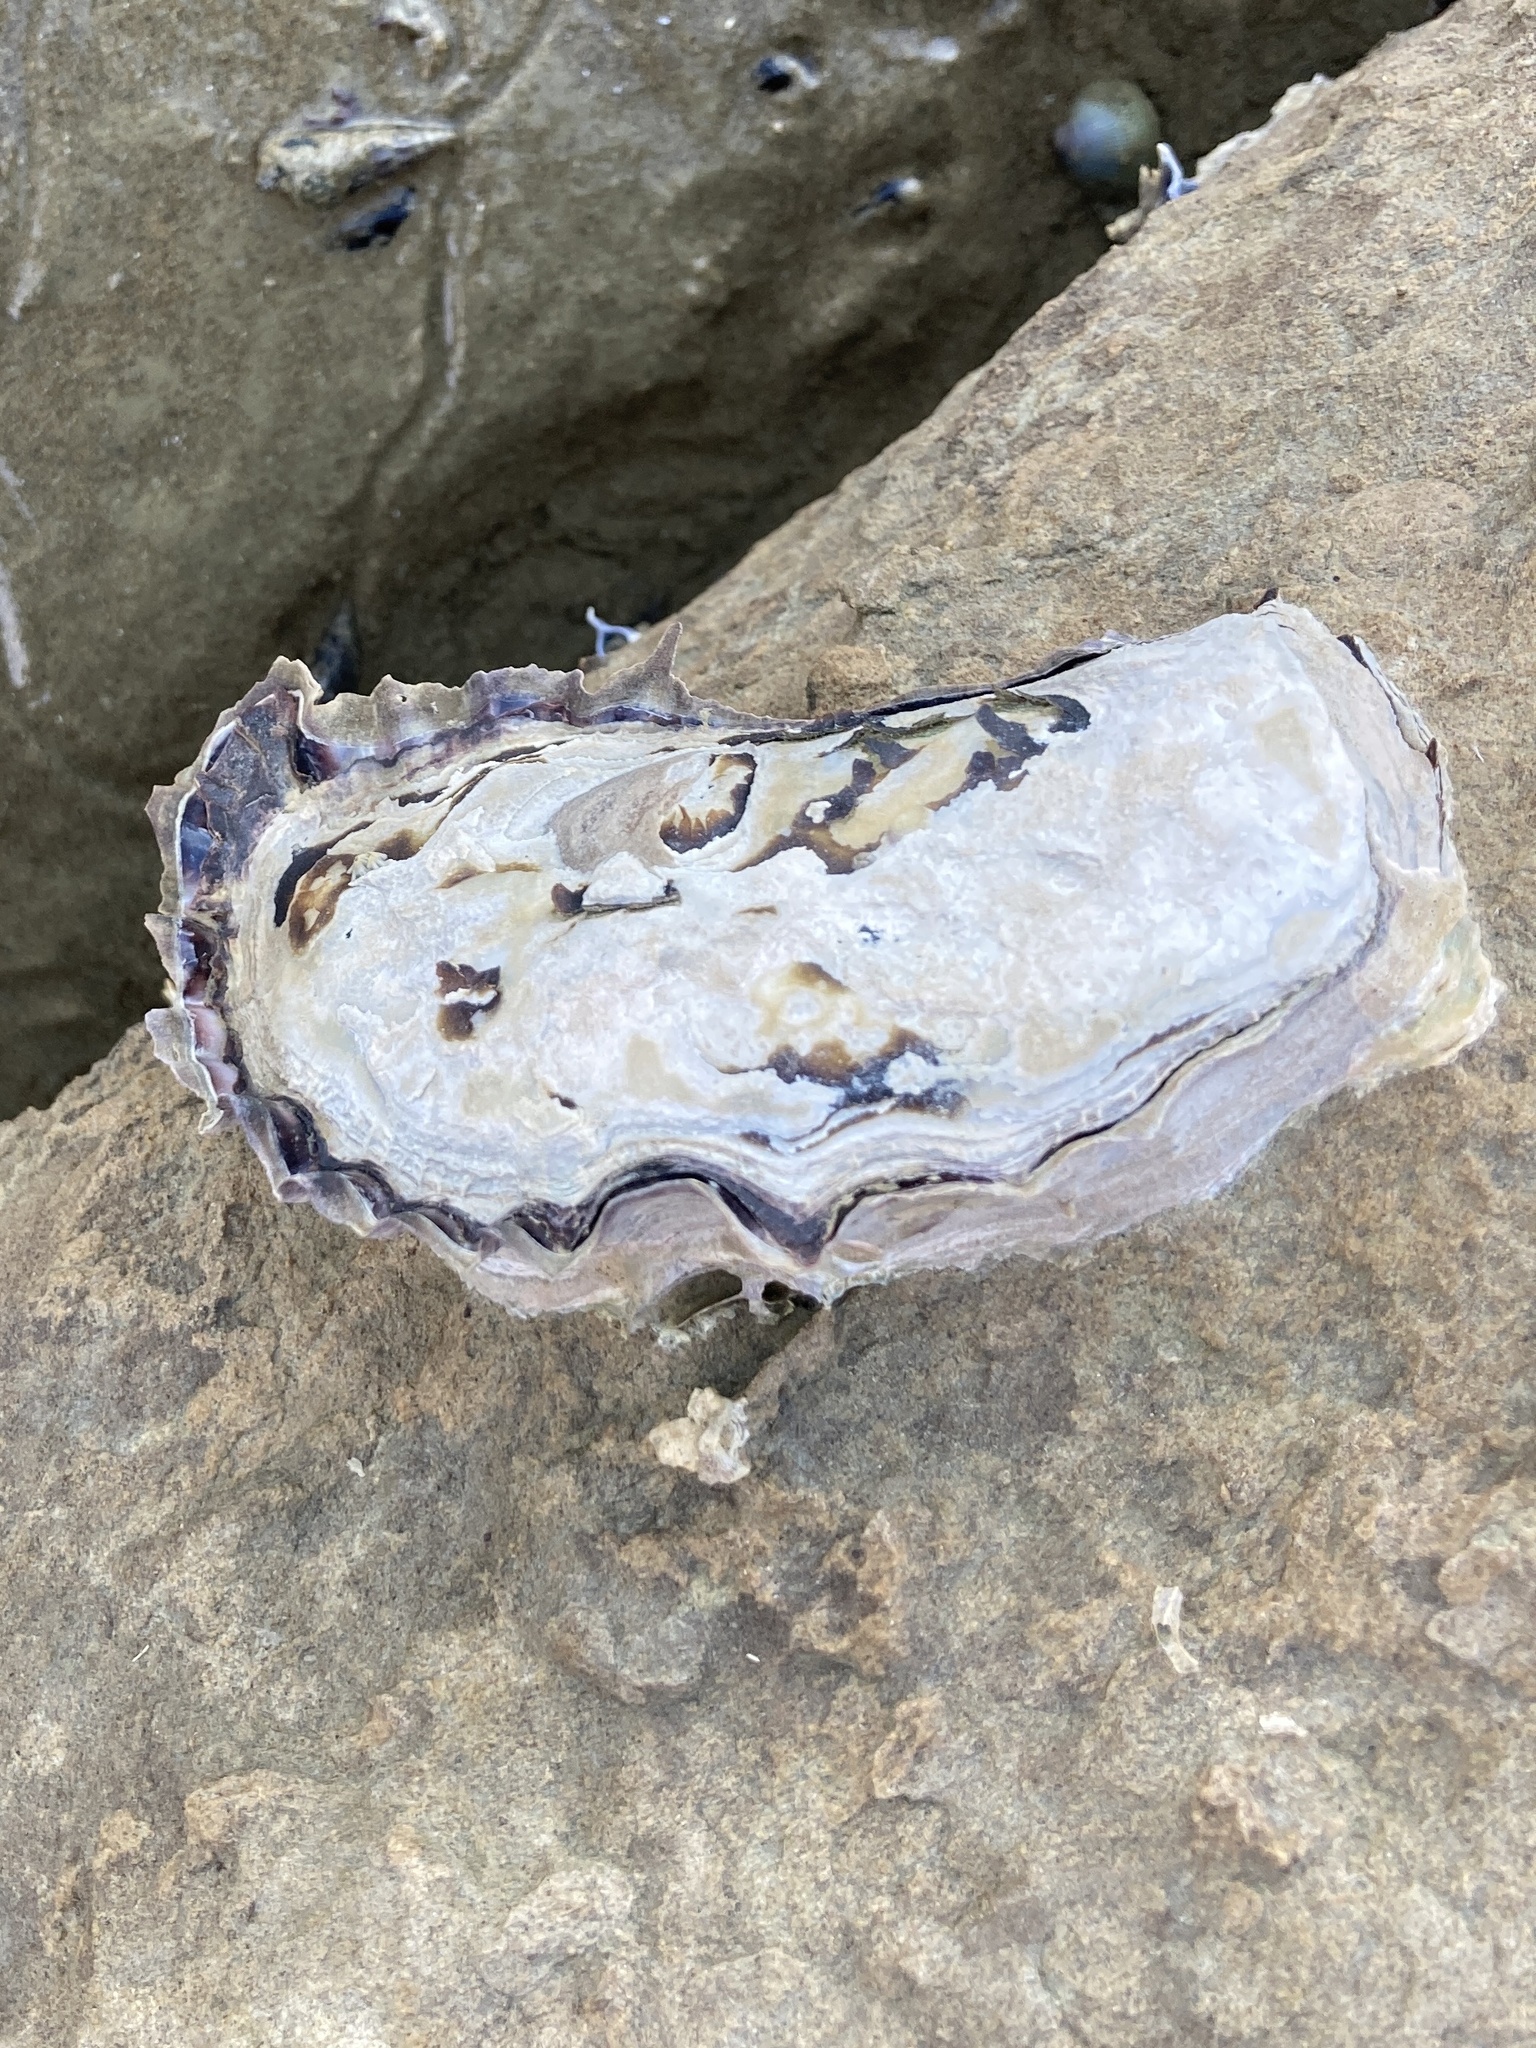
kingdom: Animalia
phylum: Mollusca
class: Bivalvia
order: Ostreida
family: Ostreidae
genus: Saccostrea
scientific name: Saccostrea glomerata
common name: Sydney cupped oyster
